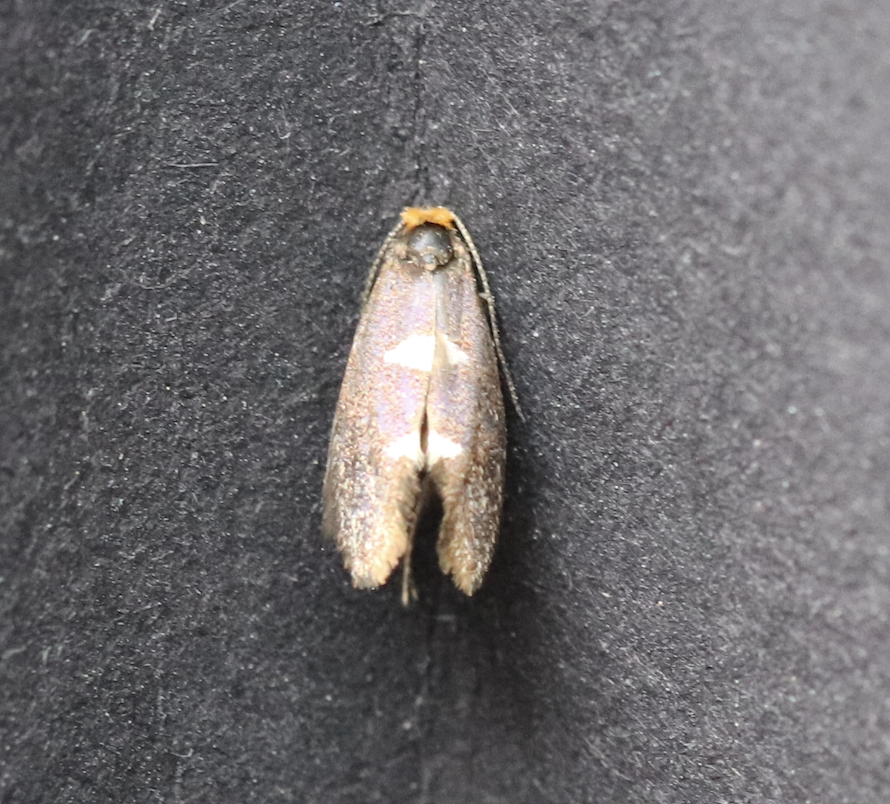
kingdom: Animalia
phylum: Arthropoda
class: Insecta
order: Lepidoptera
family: Incurvariidae
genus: Incurvaria
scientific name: Incurvaria masculella
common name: Feathered leaf-cutter
